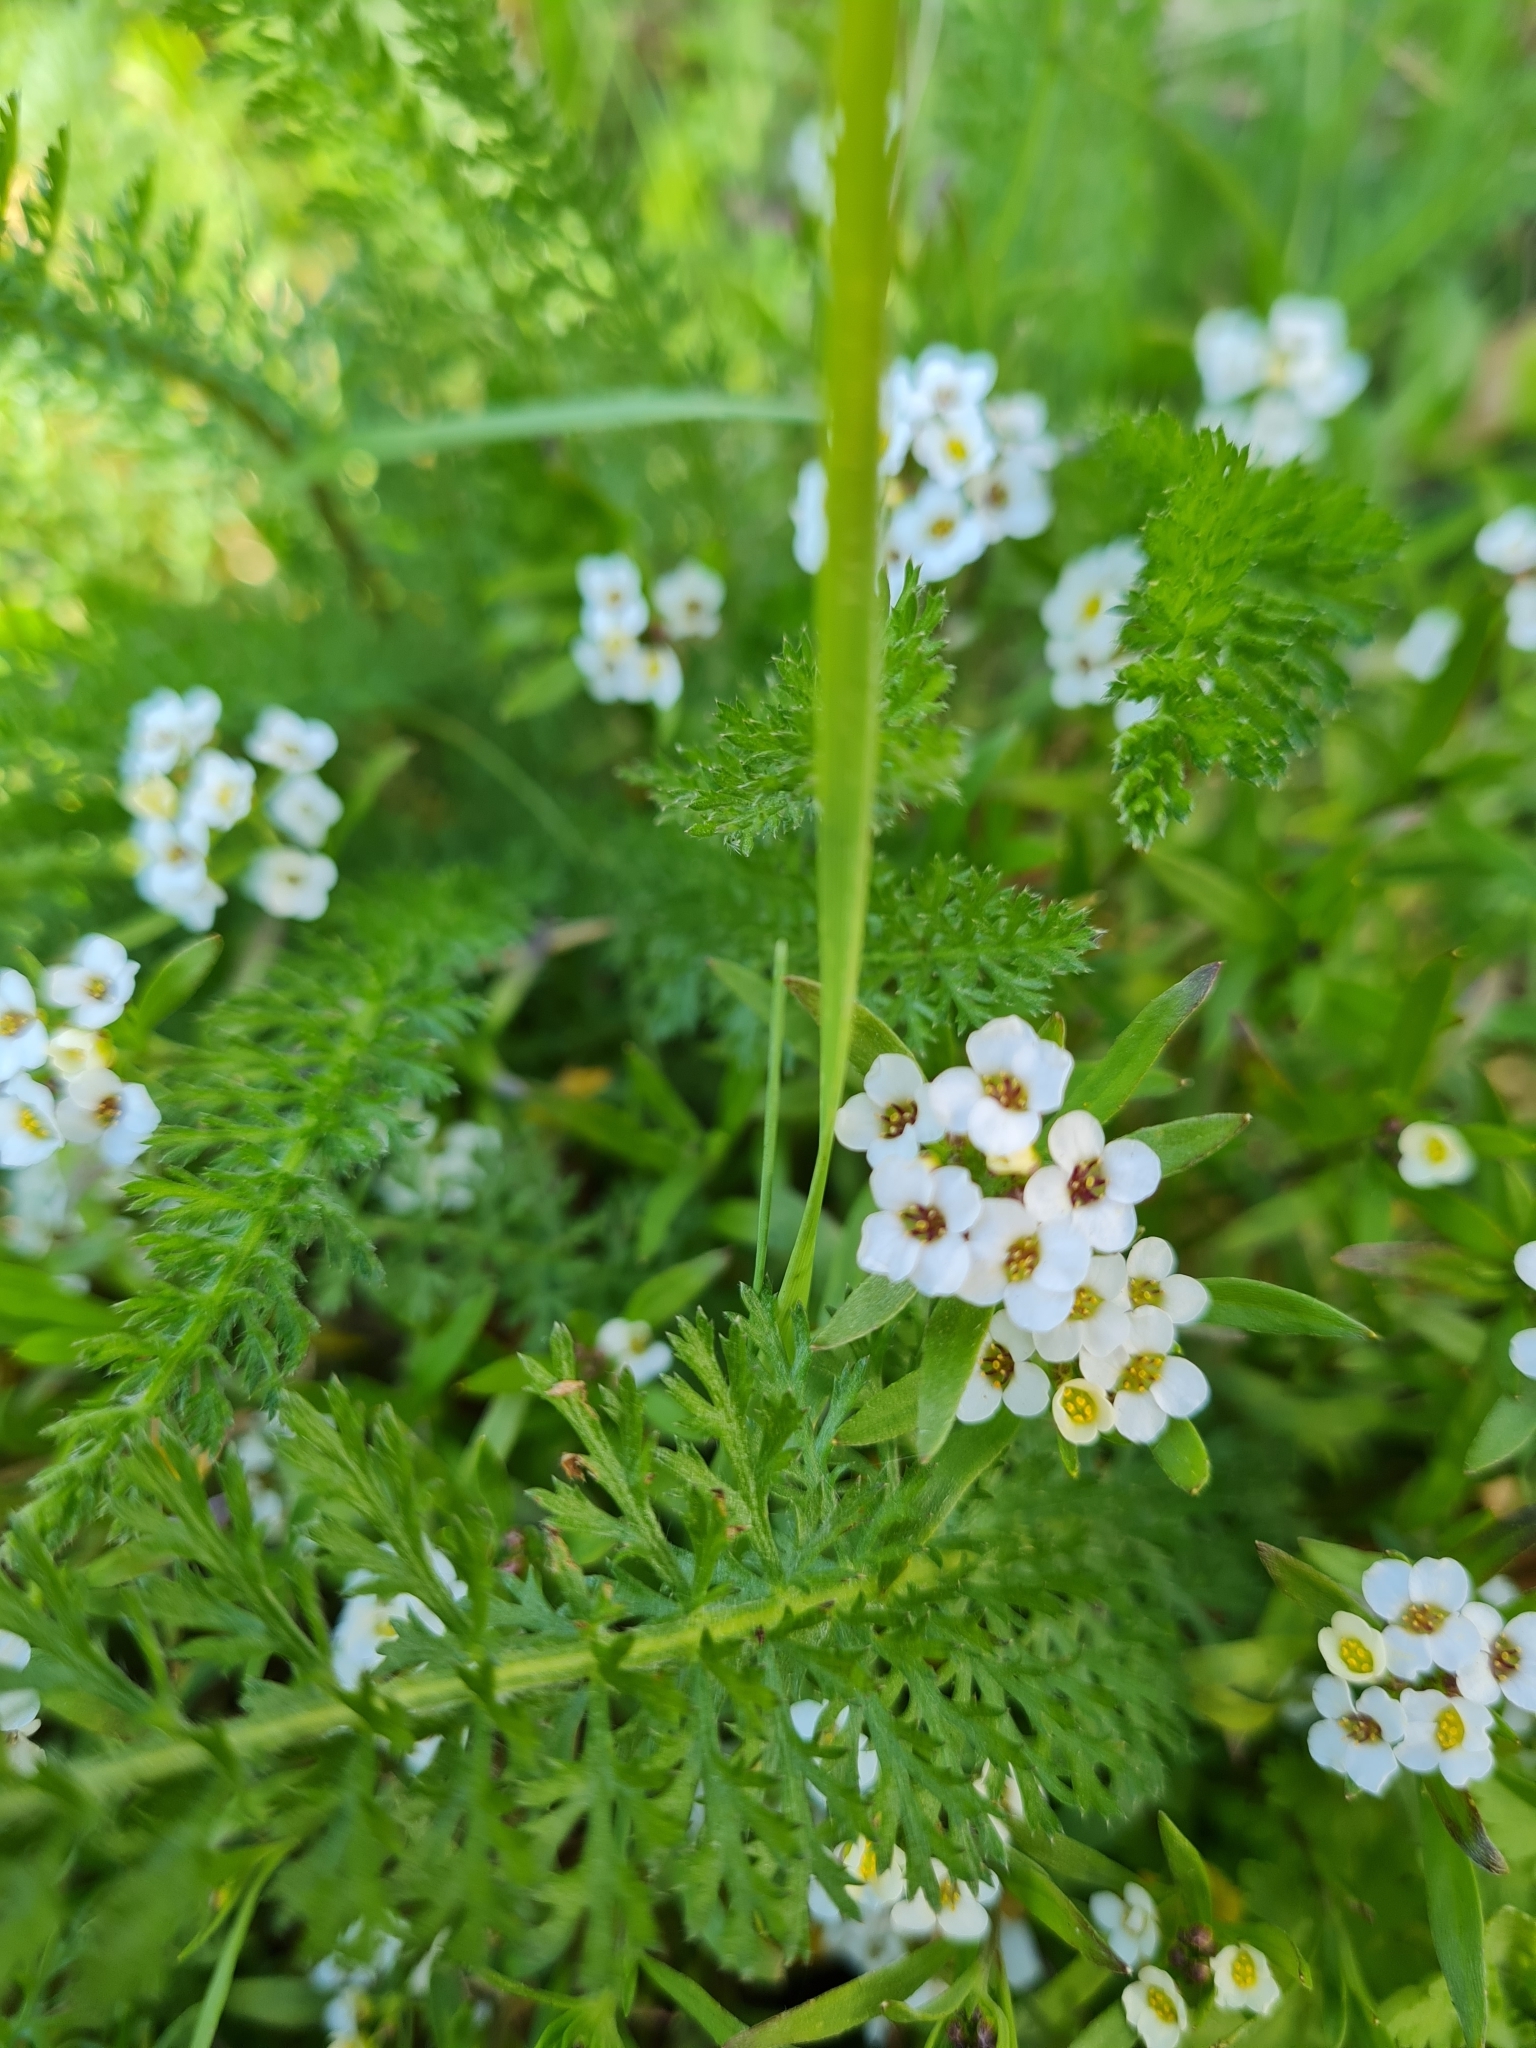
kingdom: Plantae
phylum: Tracheophyta
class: Magnoliopsida
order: Asterales
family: Asteraceae
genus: Achillea
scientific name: Achillea millefolium
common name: Yarrow
